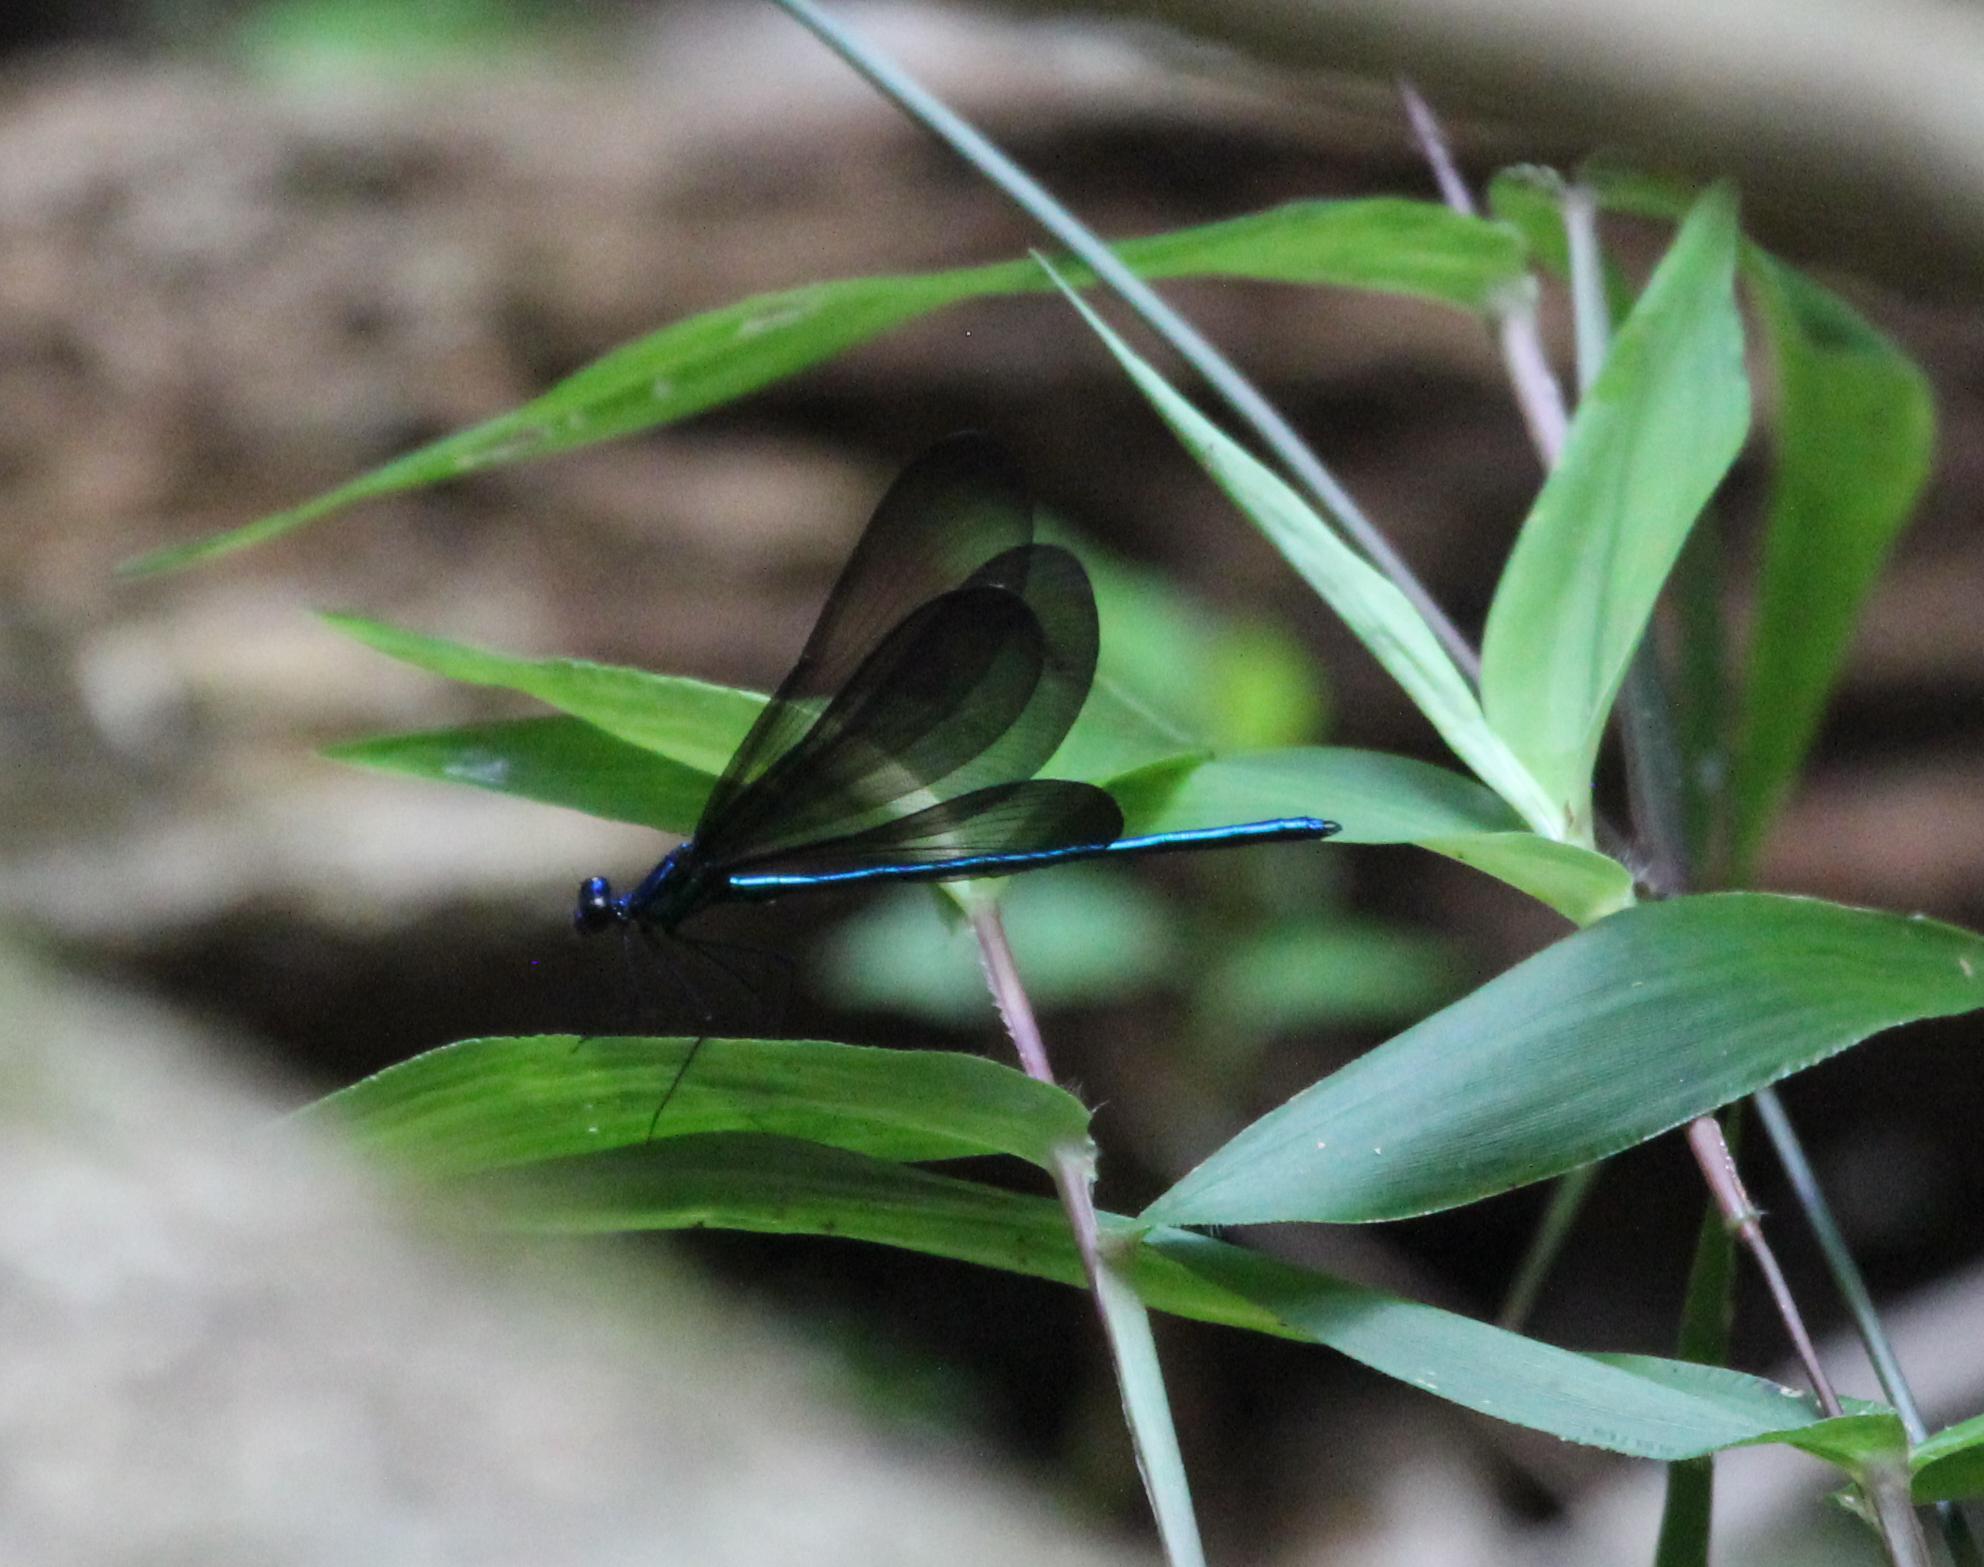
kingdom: Animalia
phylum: Arthropoda
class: Insecta
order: Odonata
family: Calopterygidae
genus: Calopteryx
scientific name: Calopteryx maculata
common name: Ebony jewelwing
